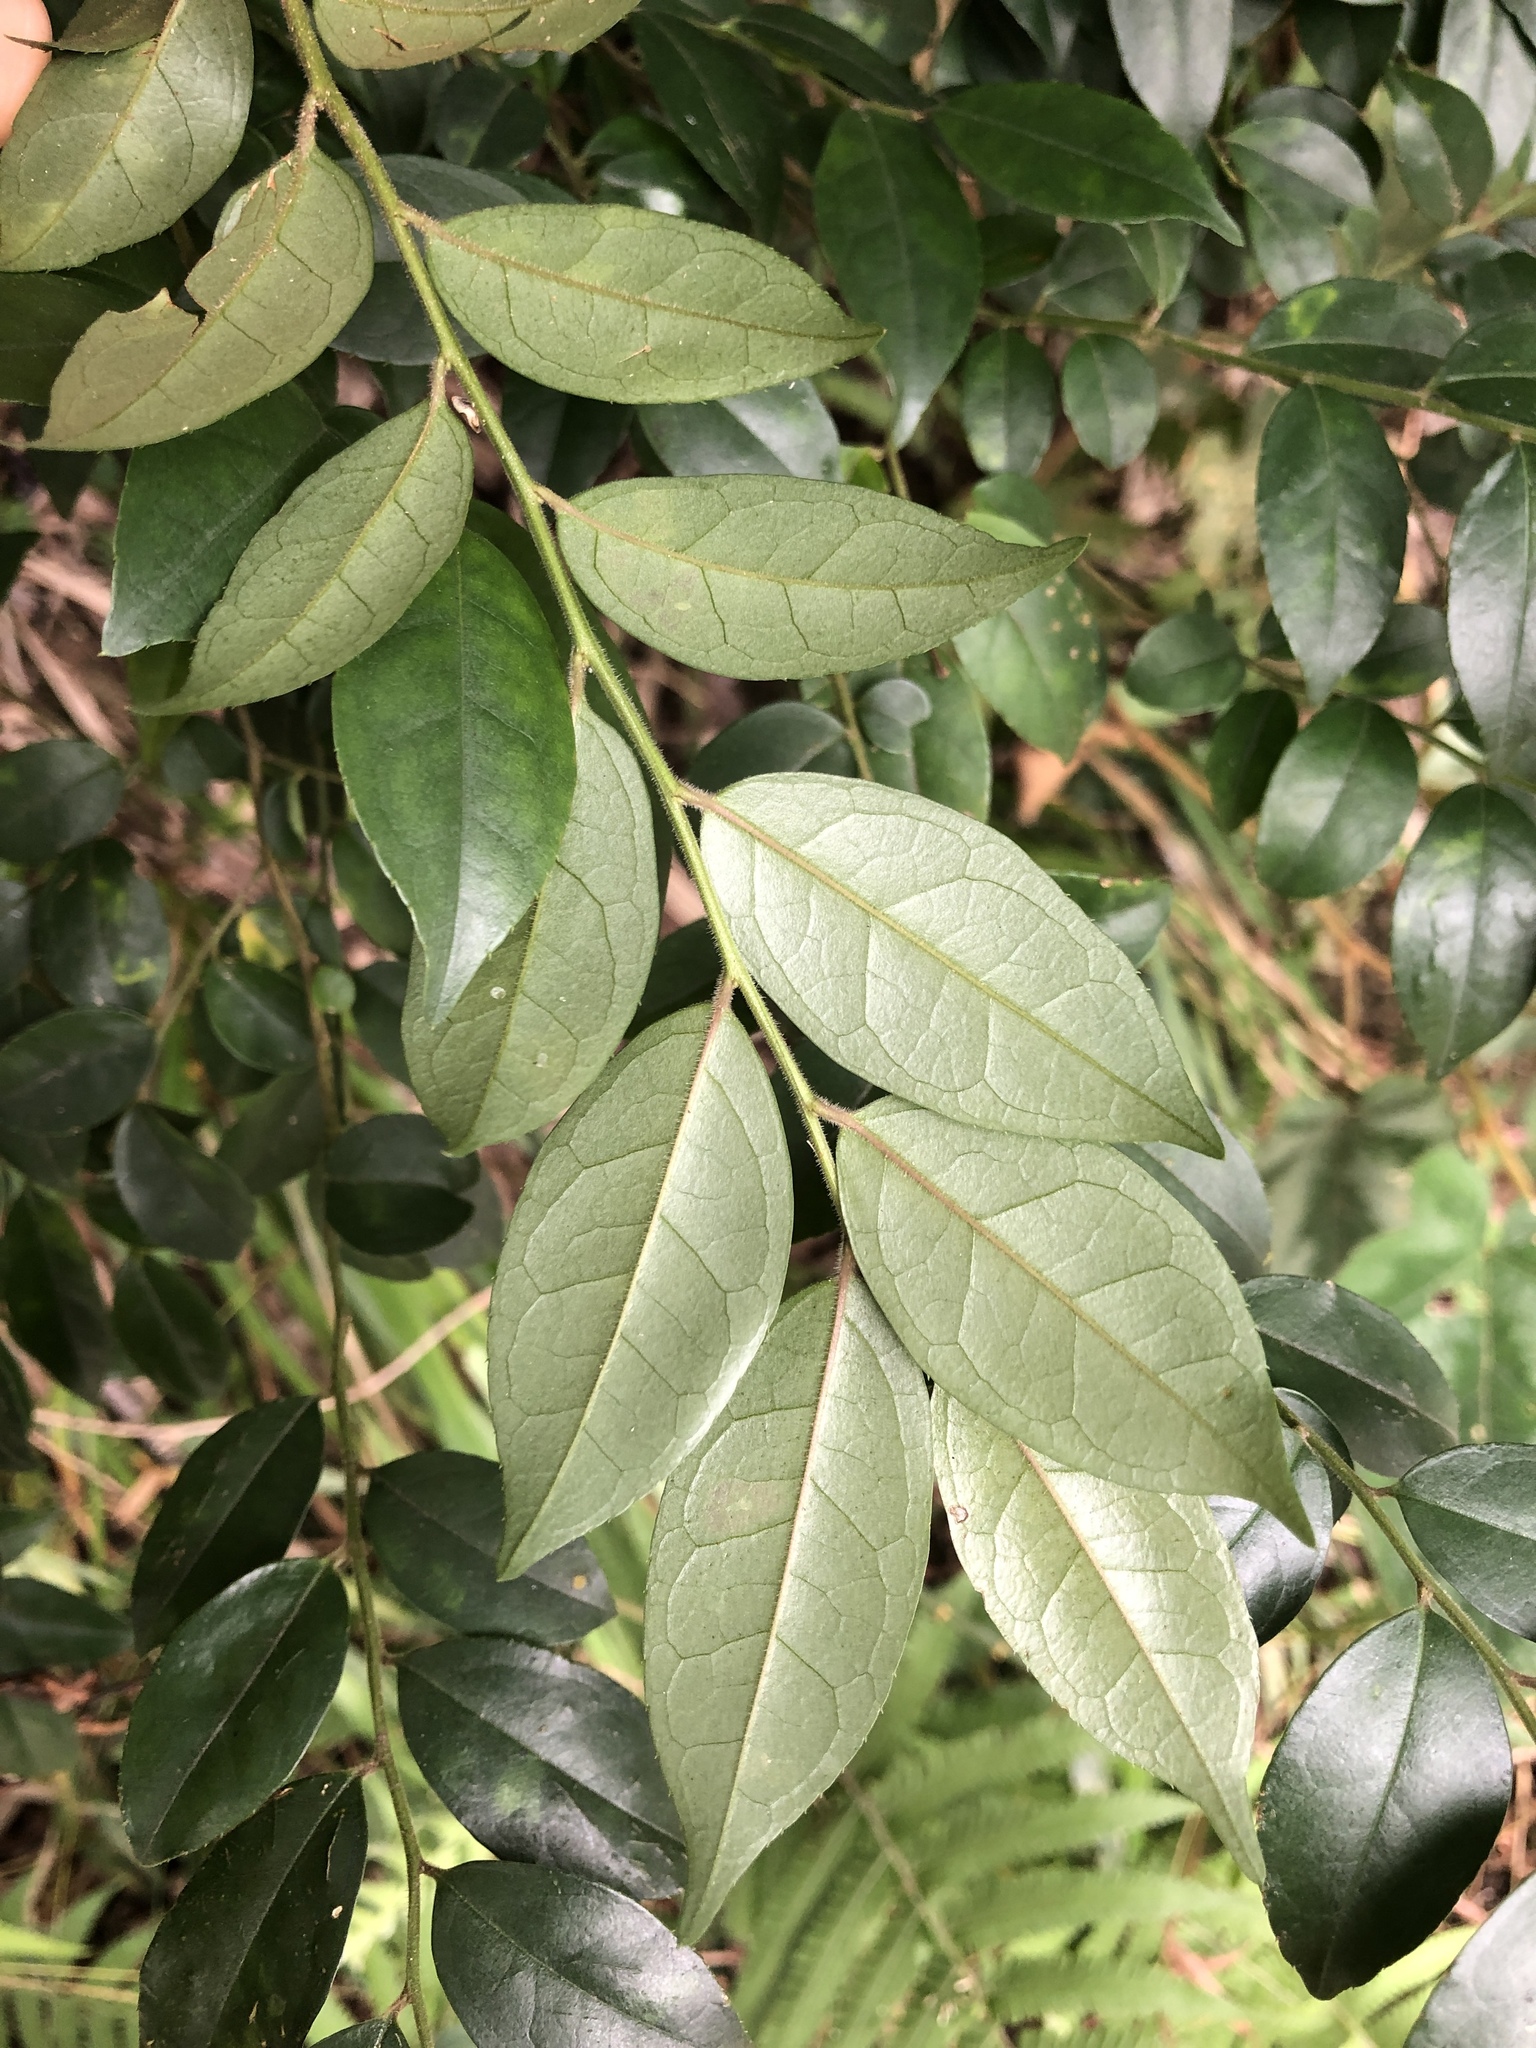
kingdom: Plantae
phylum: Tracheophyta
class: Magnoliopsida
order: Aquifoliales
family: Aquifoliaceae
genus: Ilex
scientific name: Ilex pubescens
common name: Pubescent holly
